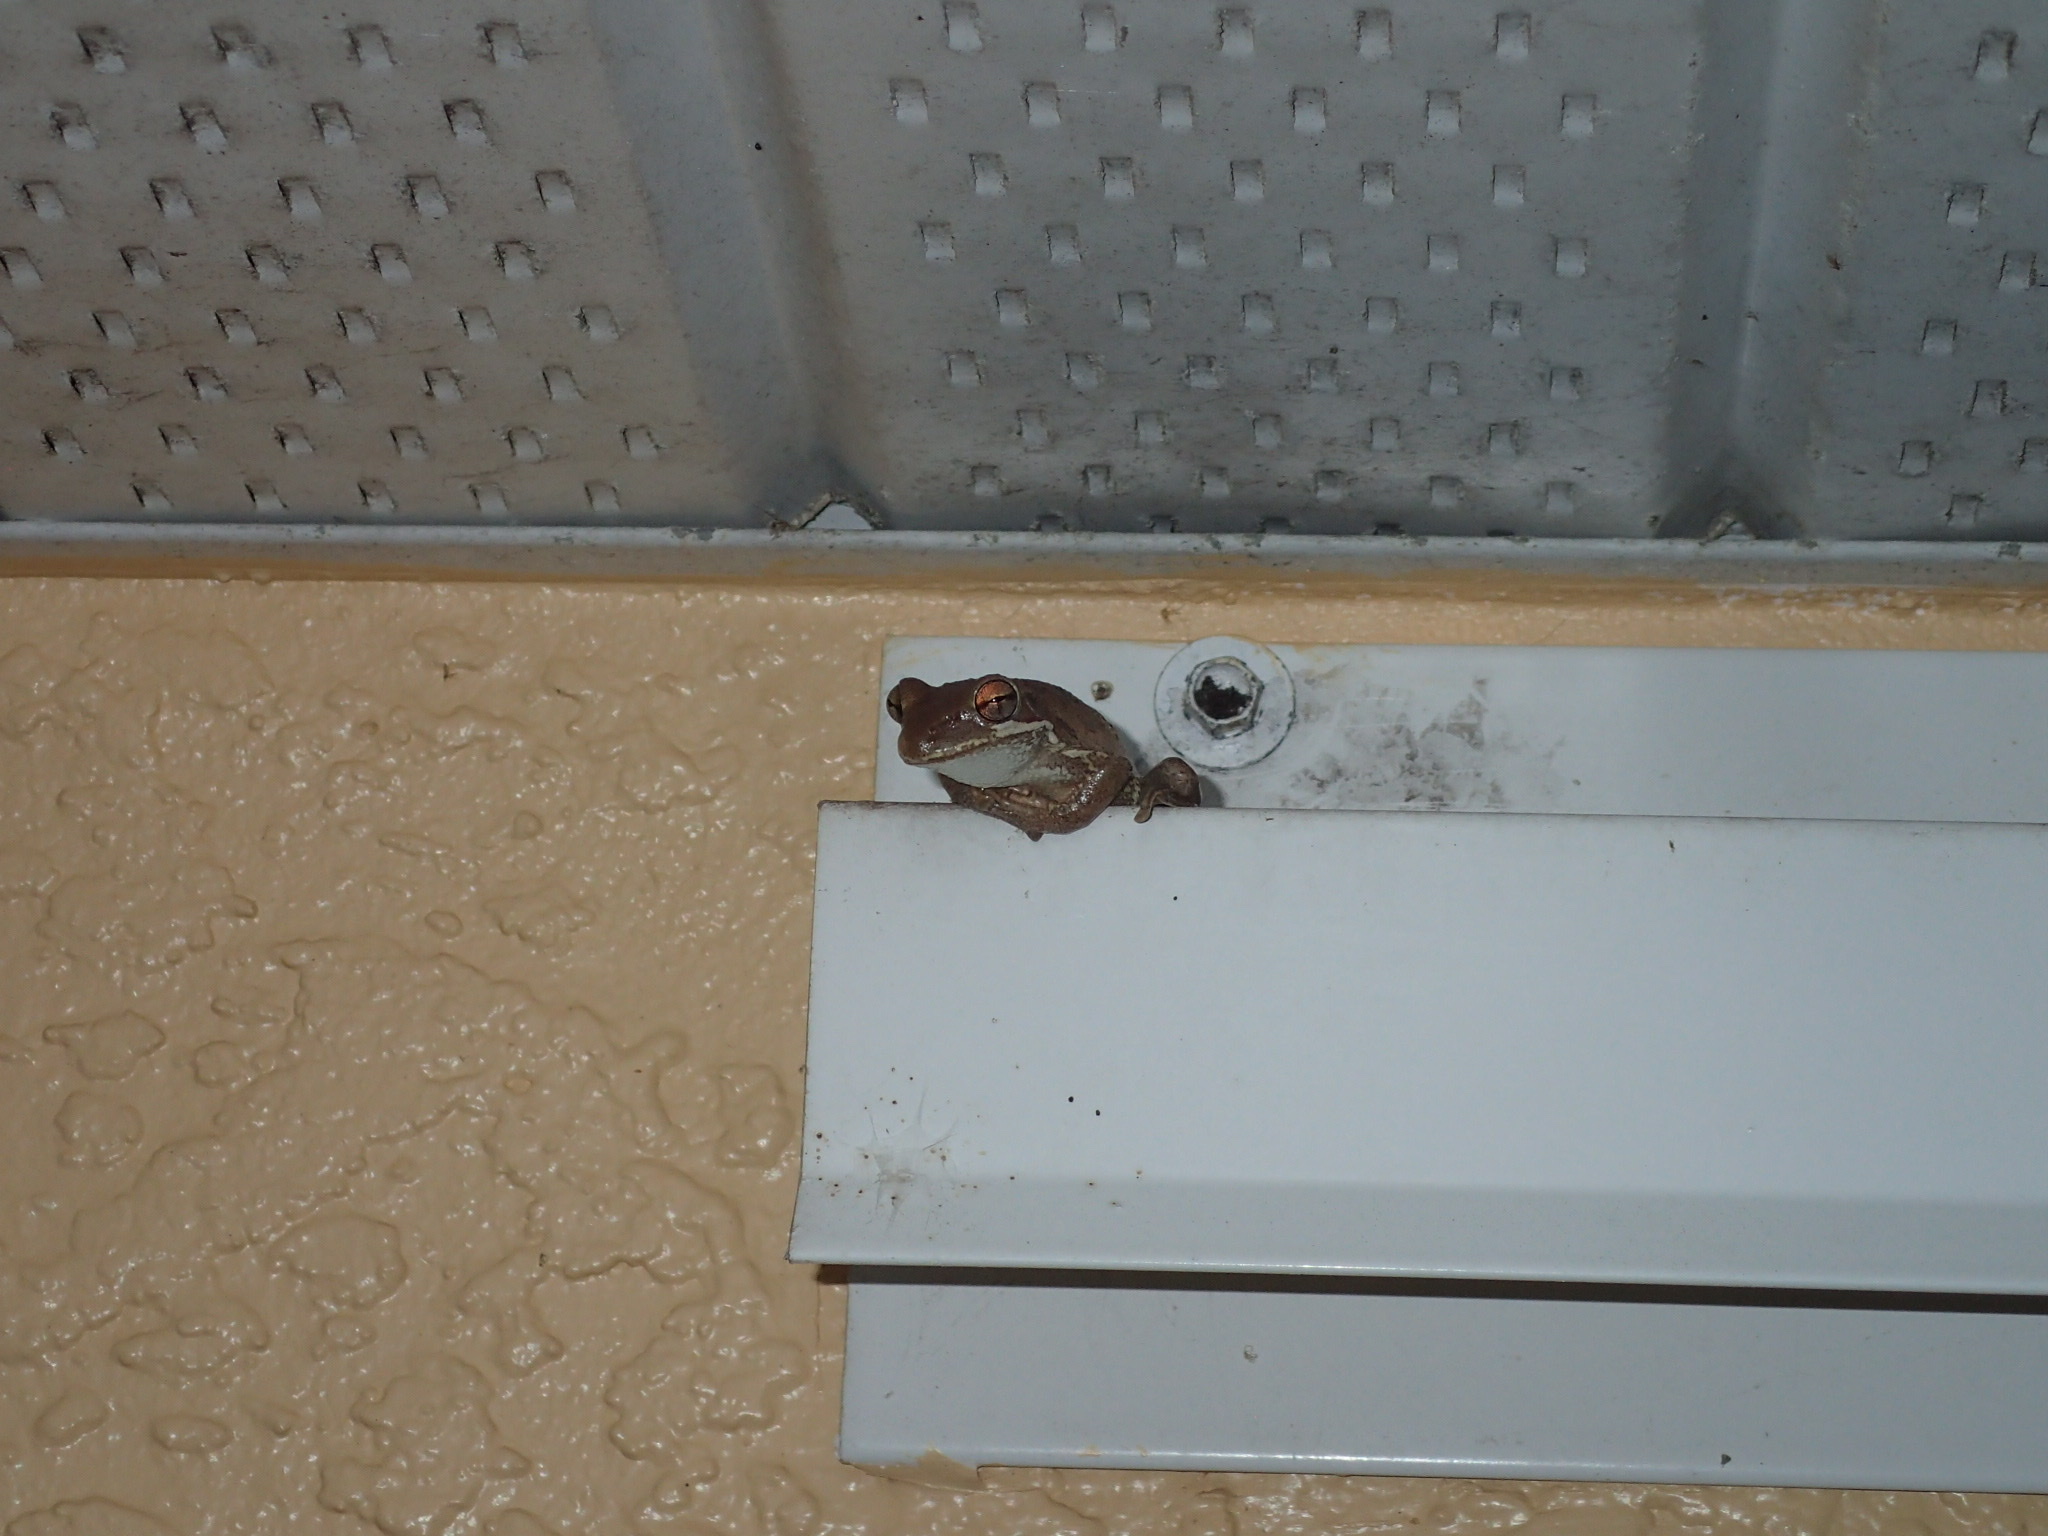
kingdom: Animalia
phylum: Chordata
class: Amphibia
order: Anura
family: Hylidae
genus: Osteopilus
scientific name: Osteopilus septentrionalis
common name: Cuban treefrog
